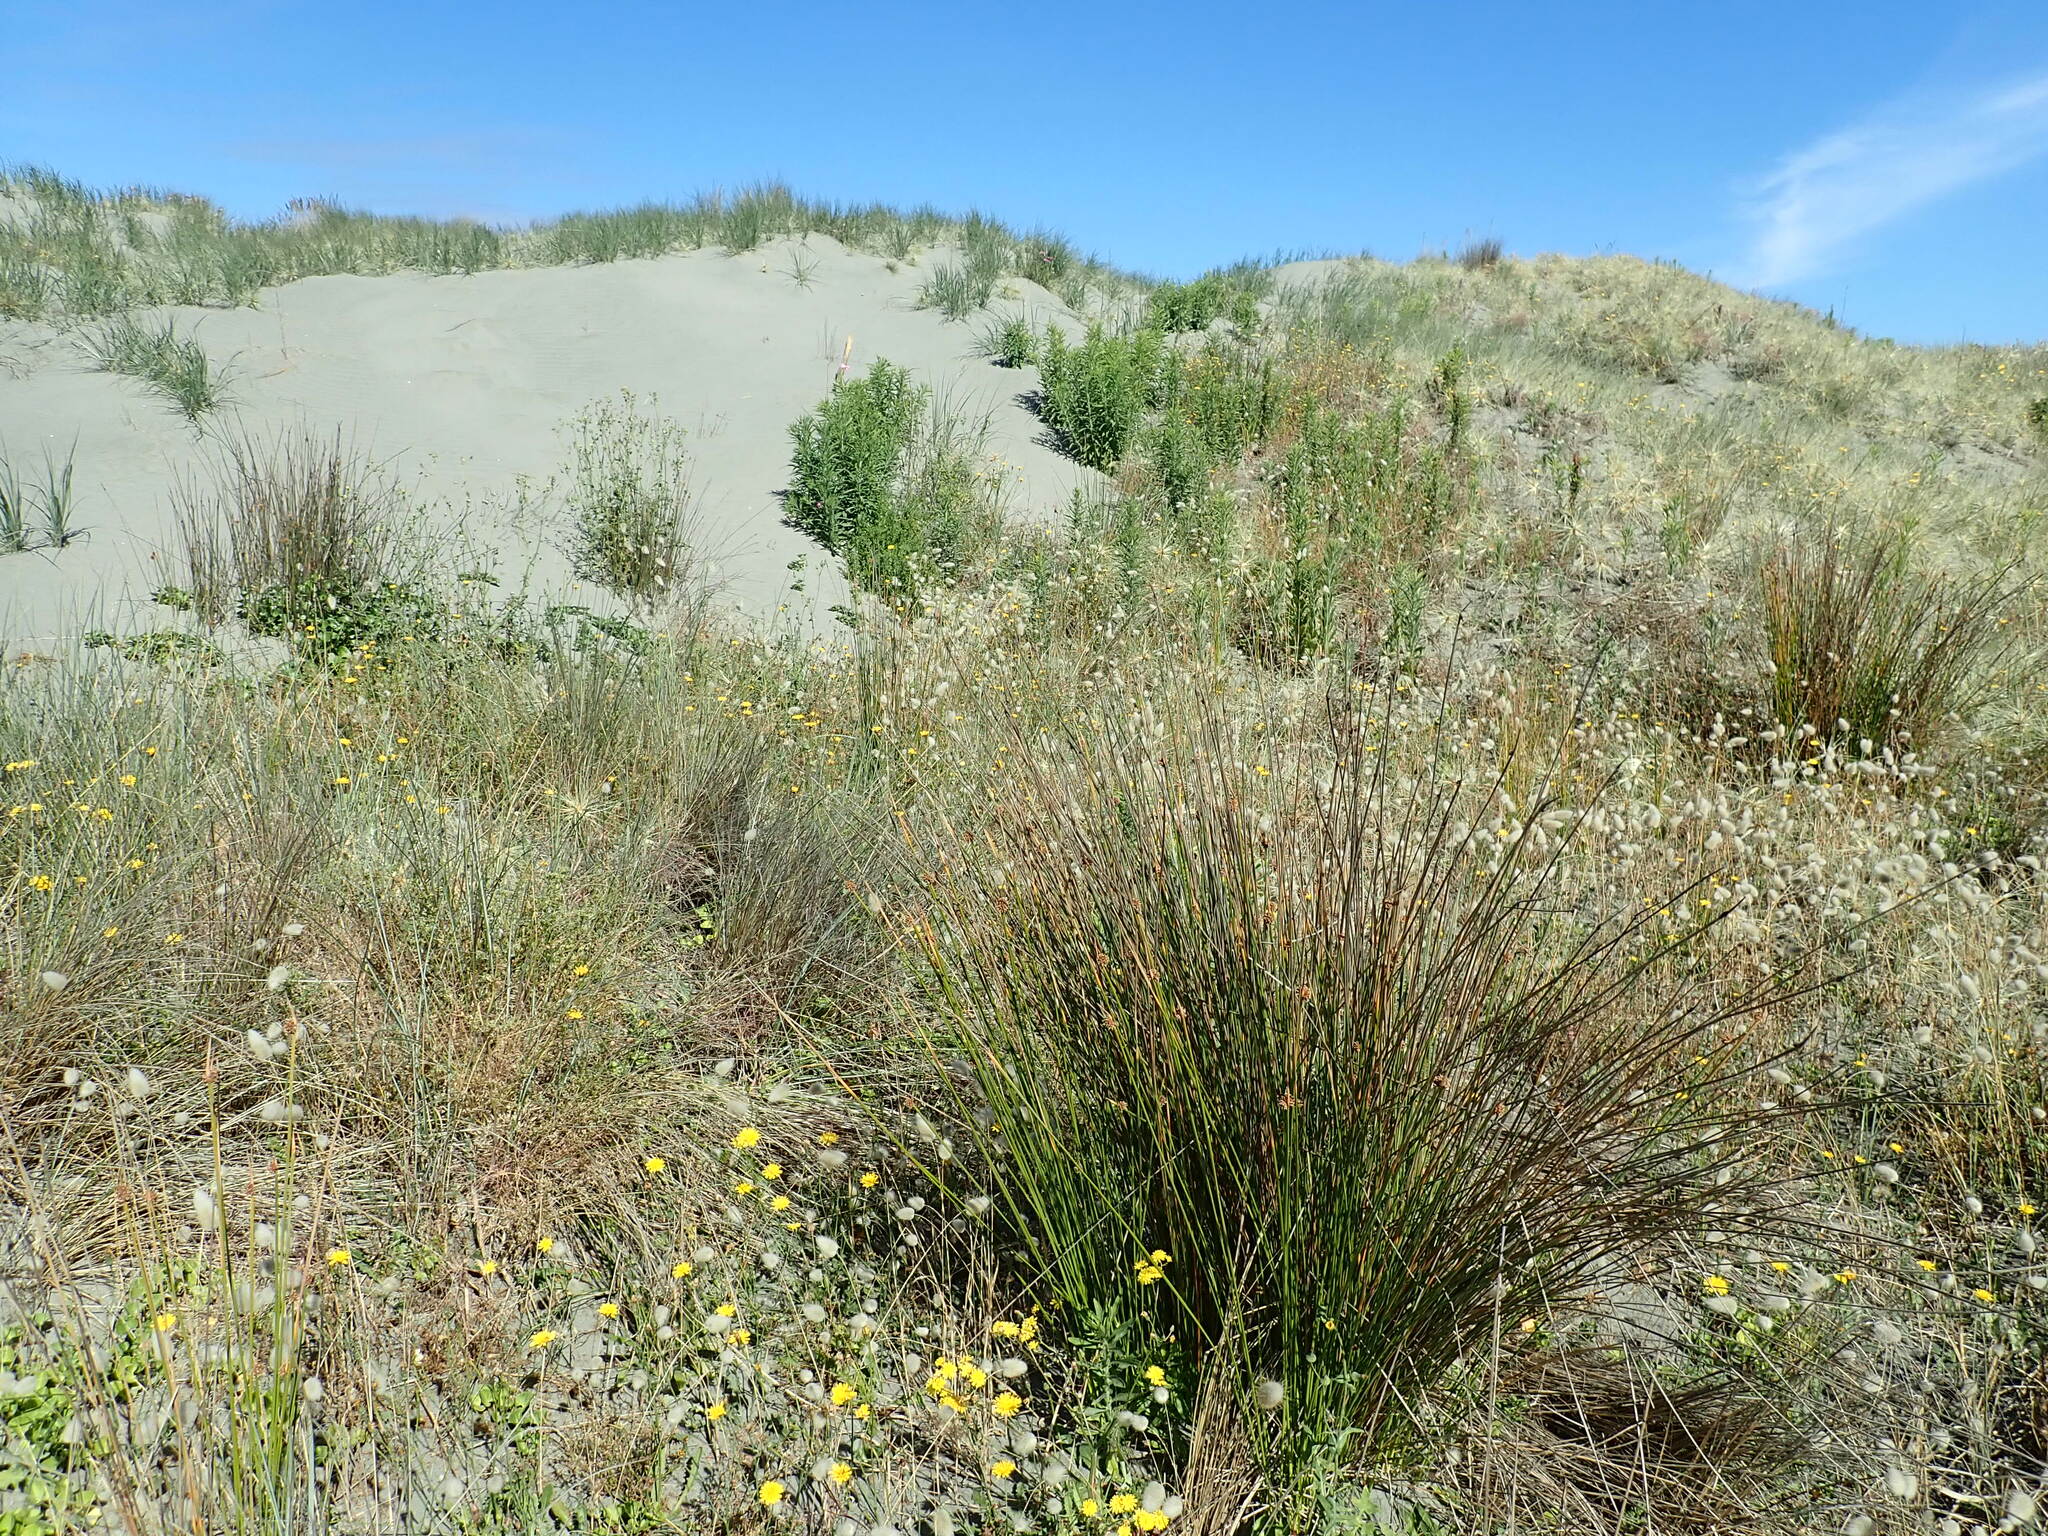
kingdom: Plantae
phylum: Tracheophyta
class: Liliopsida
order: Poales
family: Cyperaceae
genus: Ficinia
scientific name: Ficinia nodosa
